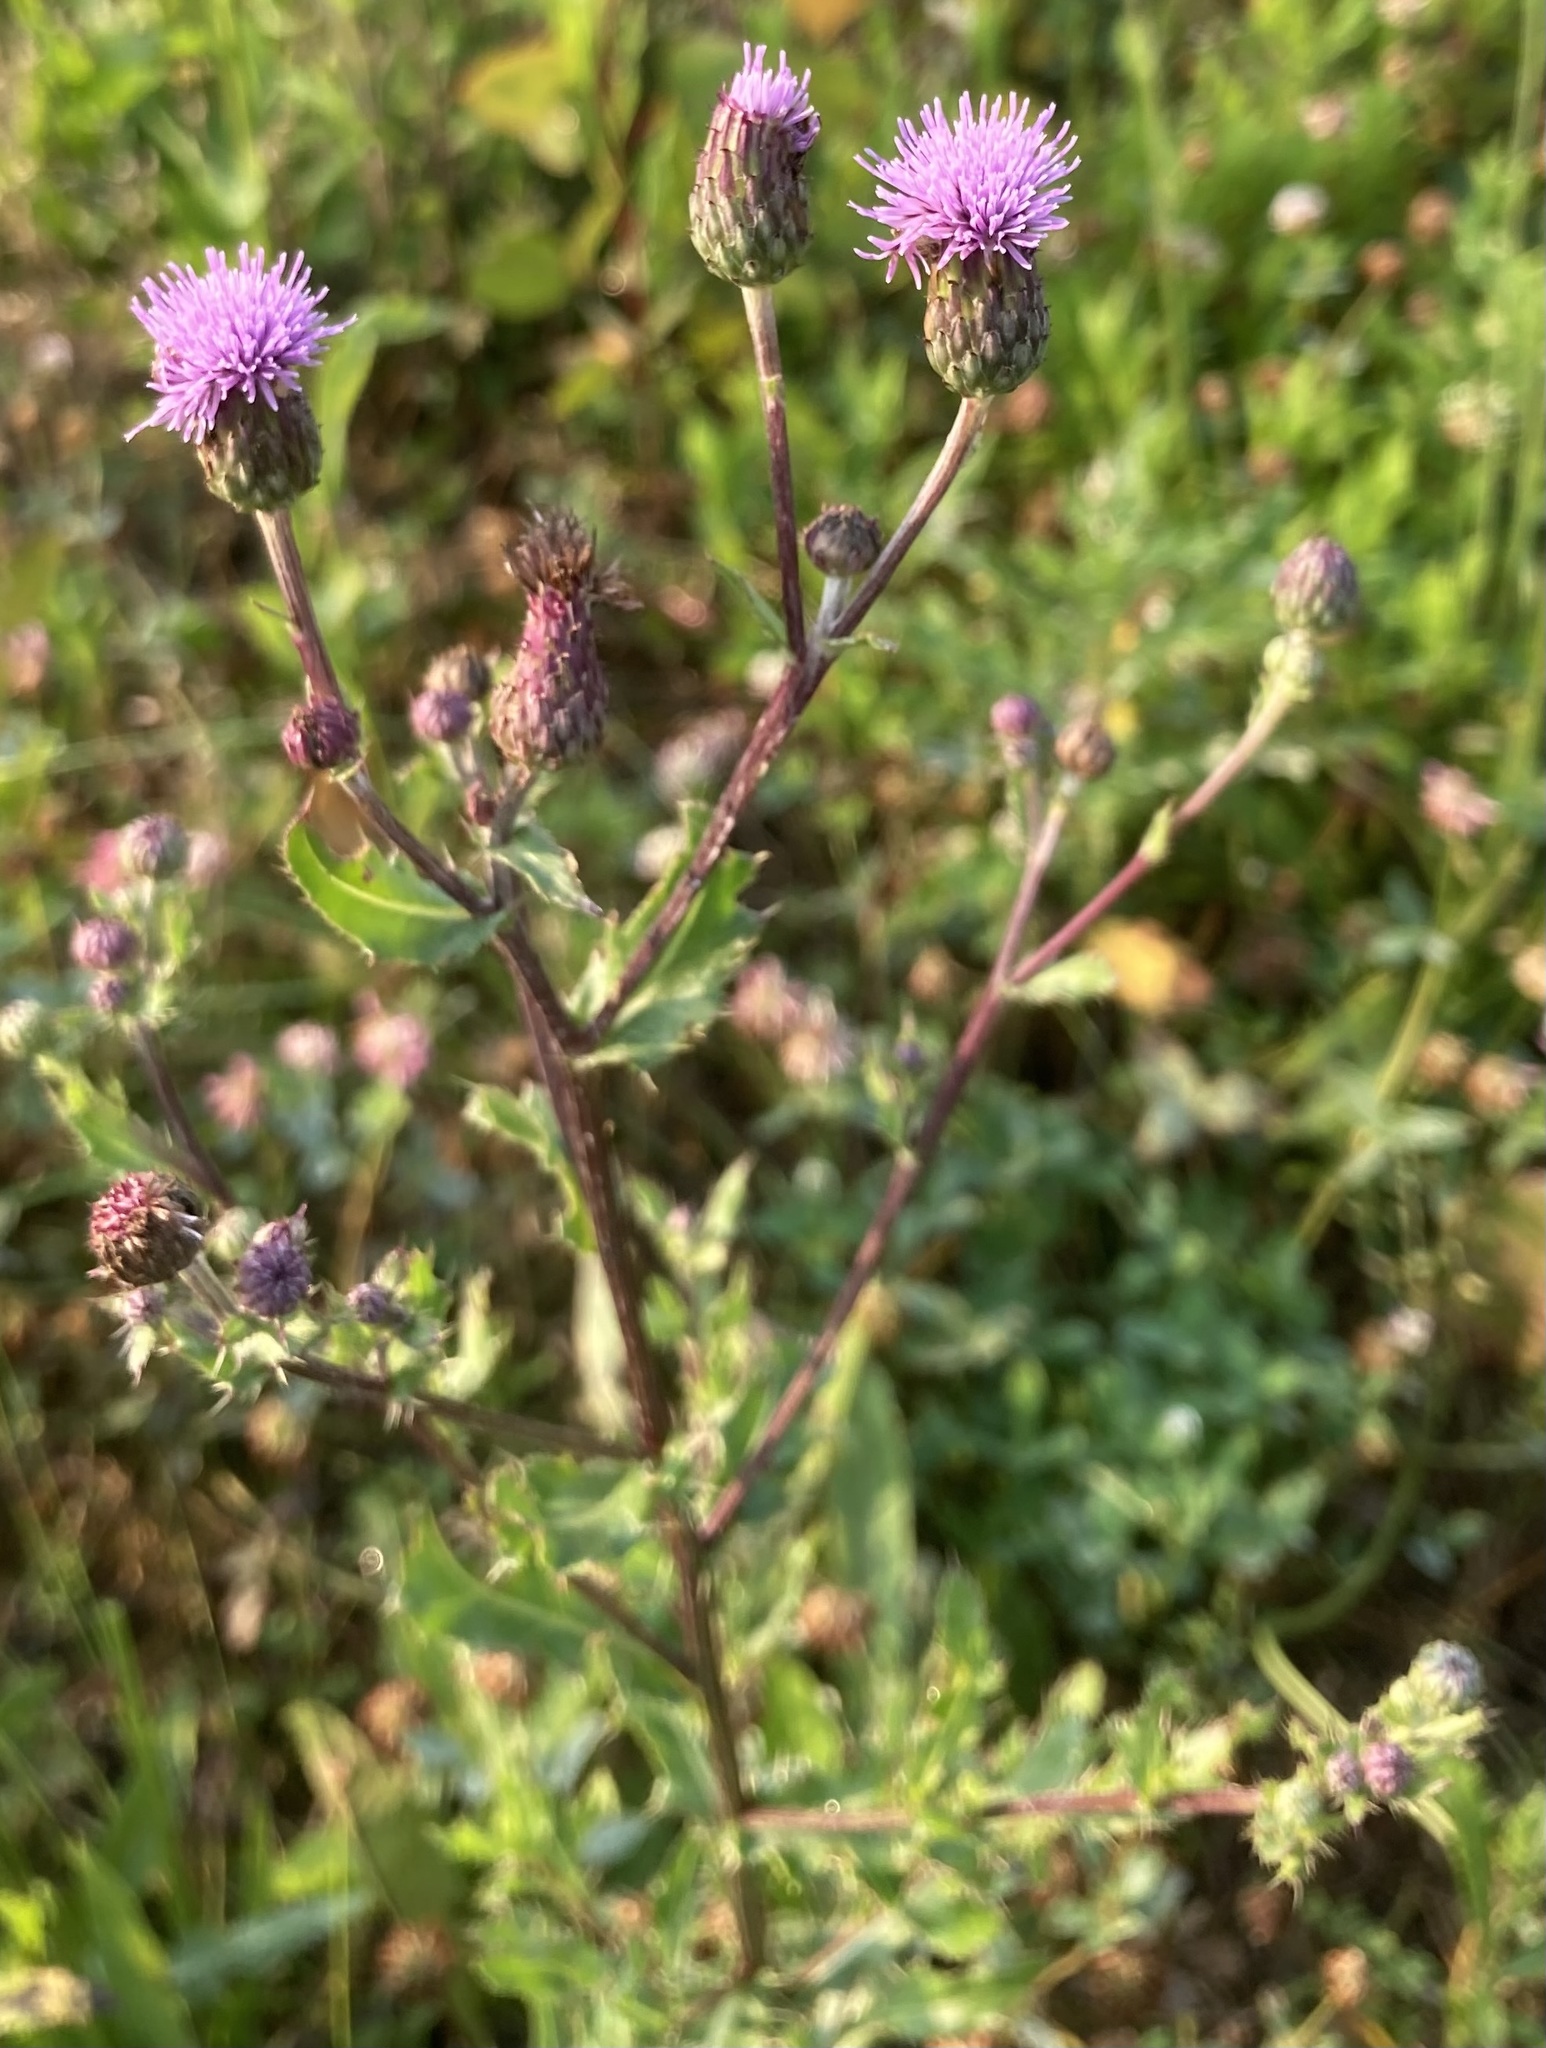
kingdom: Plantae
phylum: Tracheophyta
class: Magnoliopsida
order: Asterales
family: Asteraceae
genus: Cirsium
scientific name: Cirsium arvense
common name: Creeping thistle
